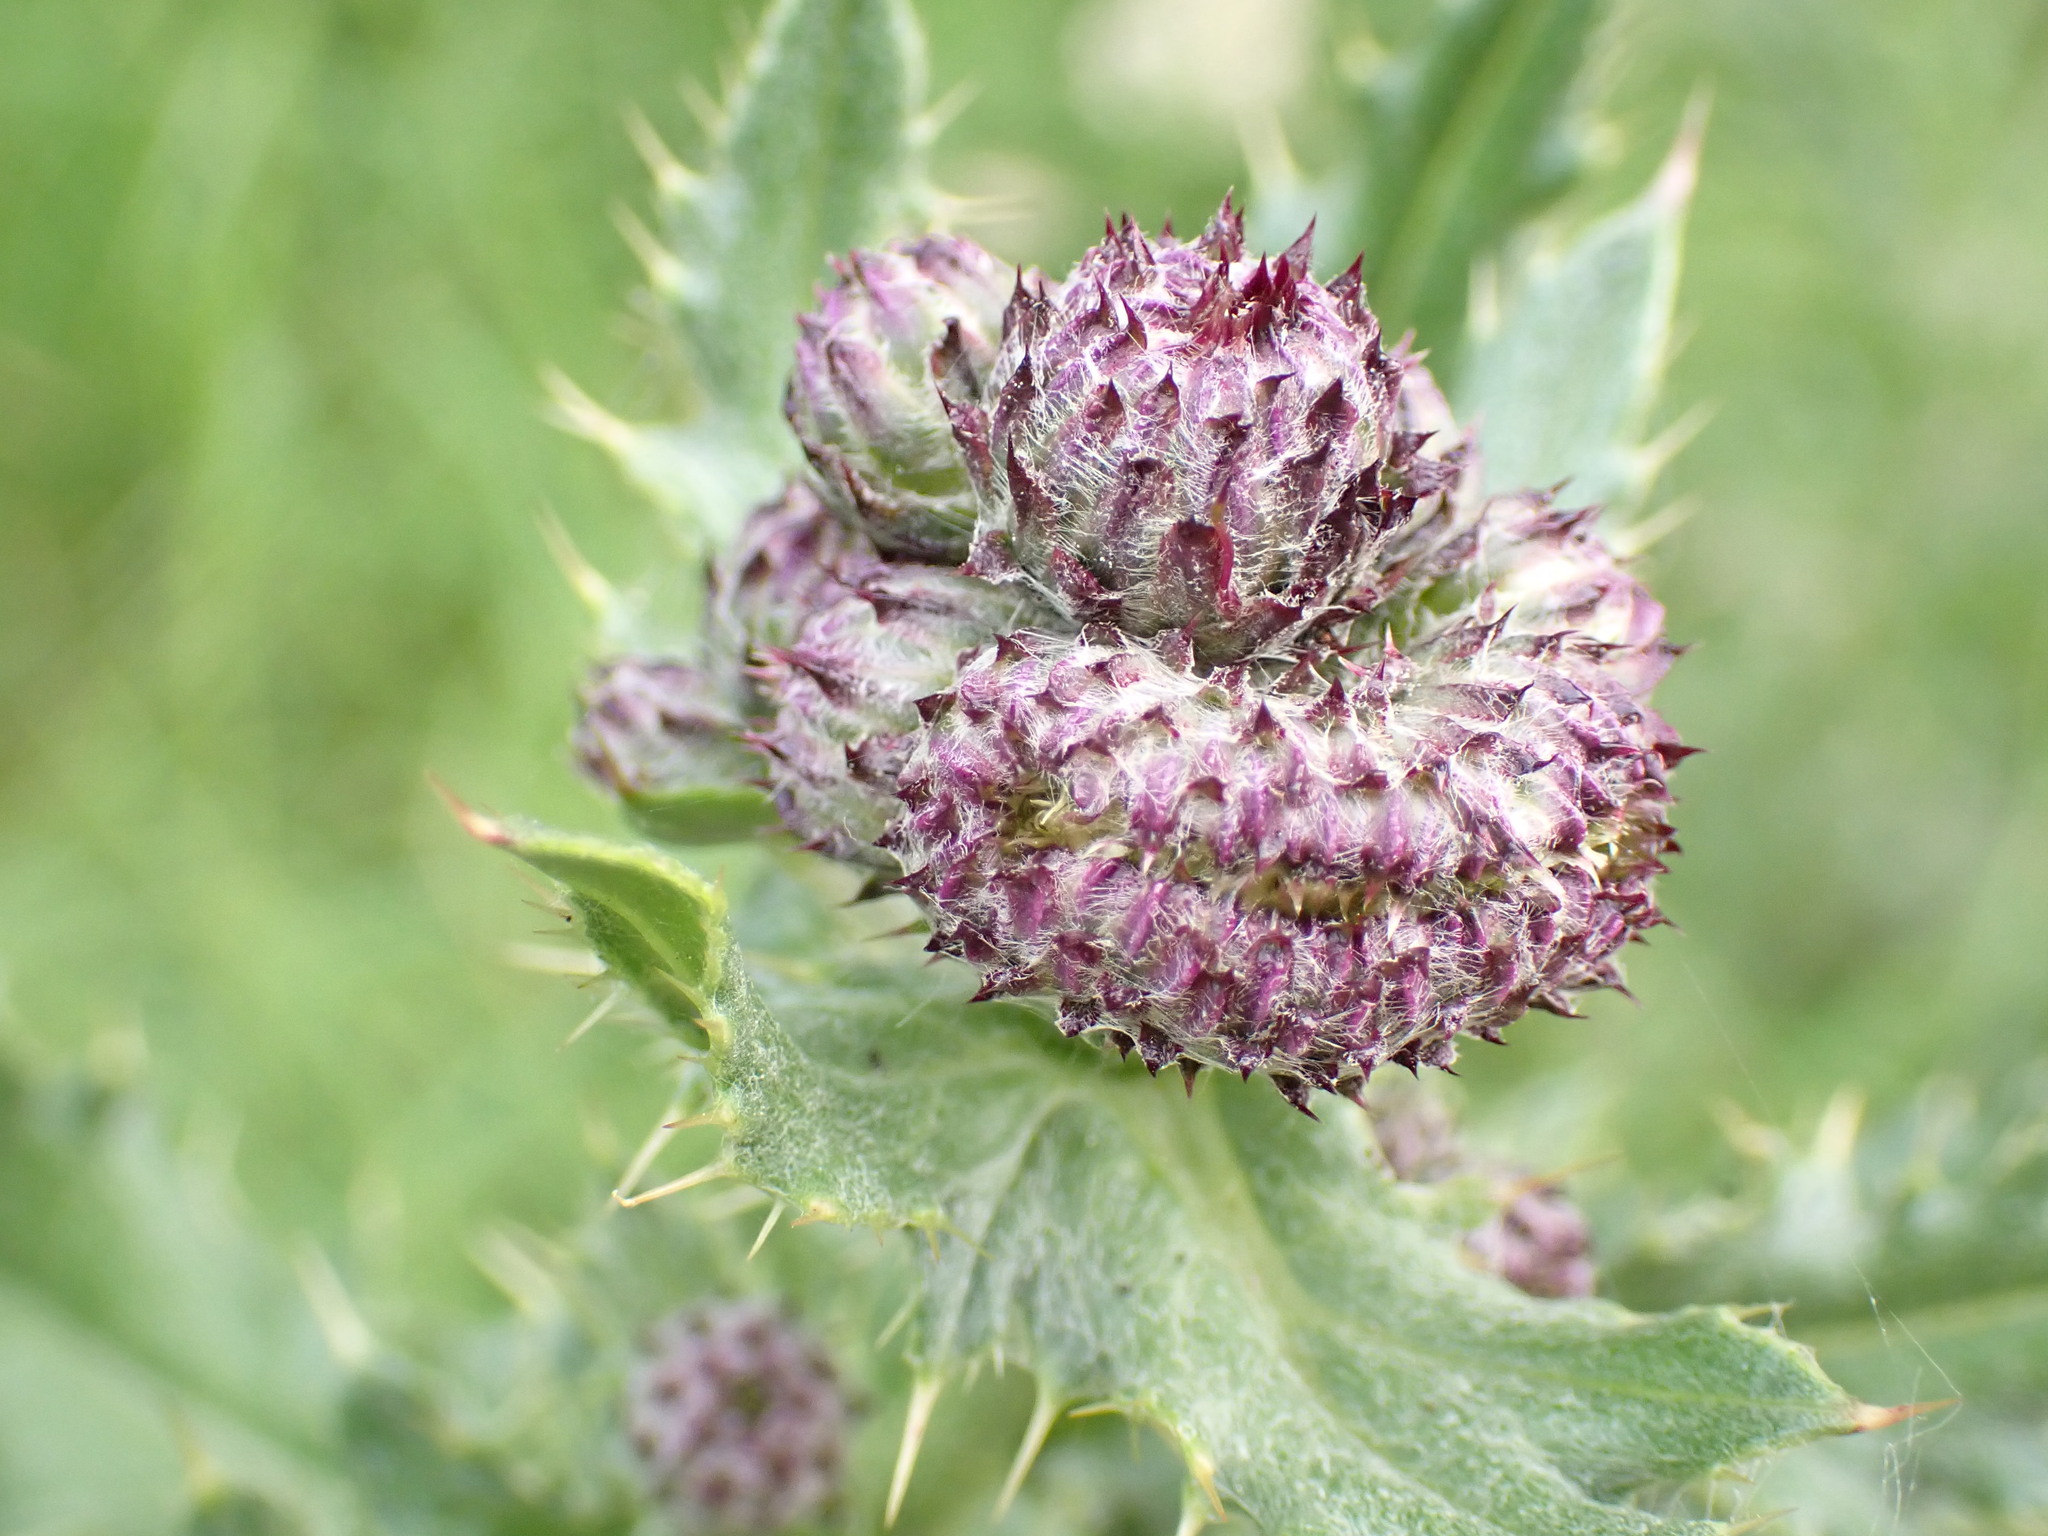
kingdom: Plantae
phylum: Tracheophyta
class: Magnoliopsida
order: Asterales
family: Asteraceae
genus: Cirsium
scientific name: Cirsium arvense
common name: Creeping thistle
